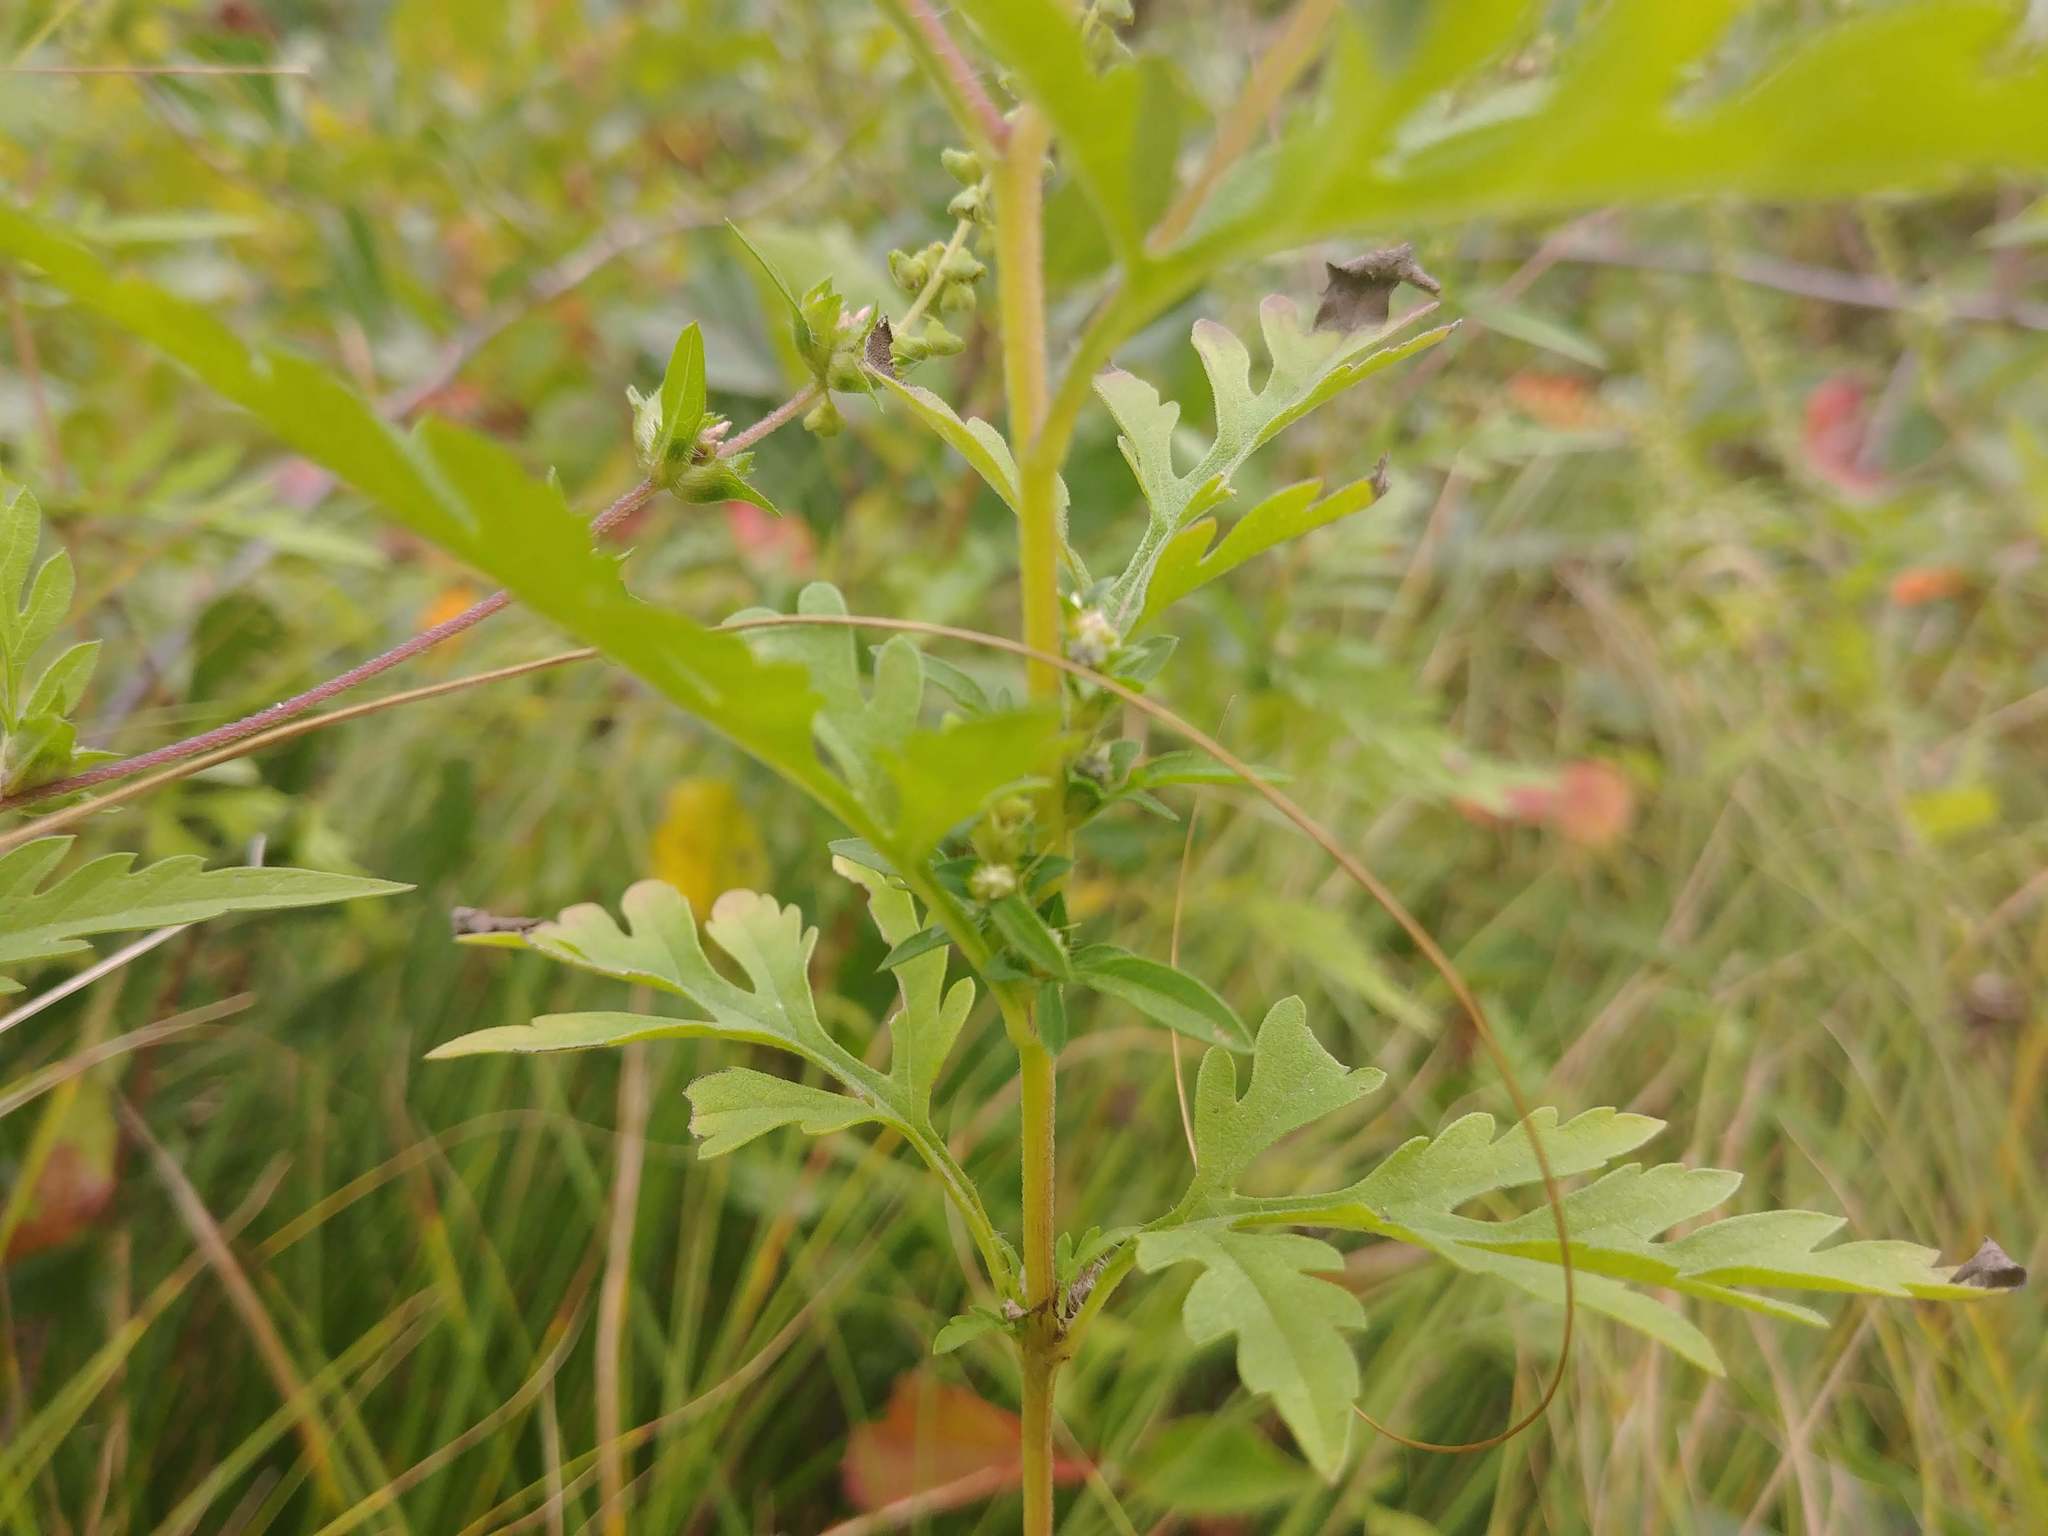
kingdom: Plantae
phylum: Tracheophyta
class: Magnoliopsida
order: Asterales
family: Asteraceae
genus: Ambrosia
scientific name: Ambrosia artemisiifolia
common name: Annual ragweed
